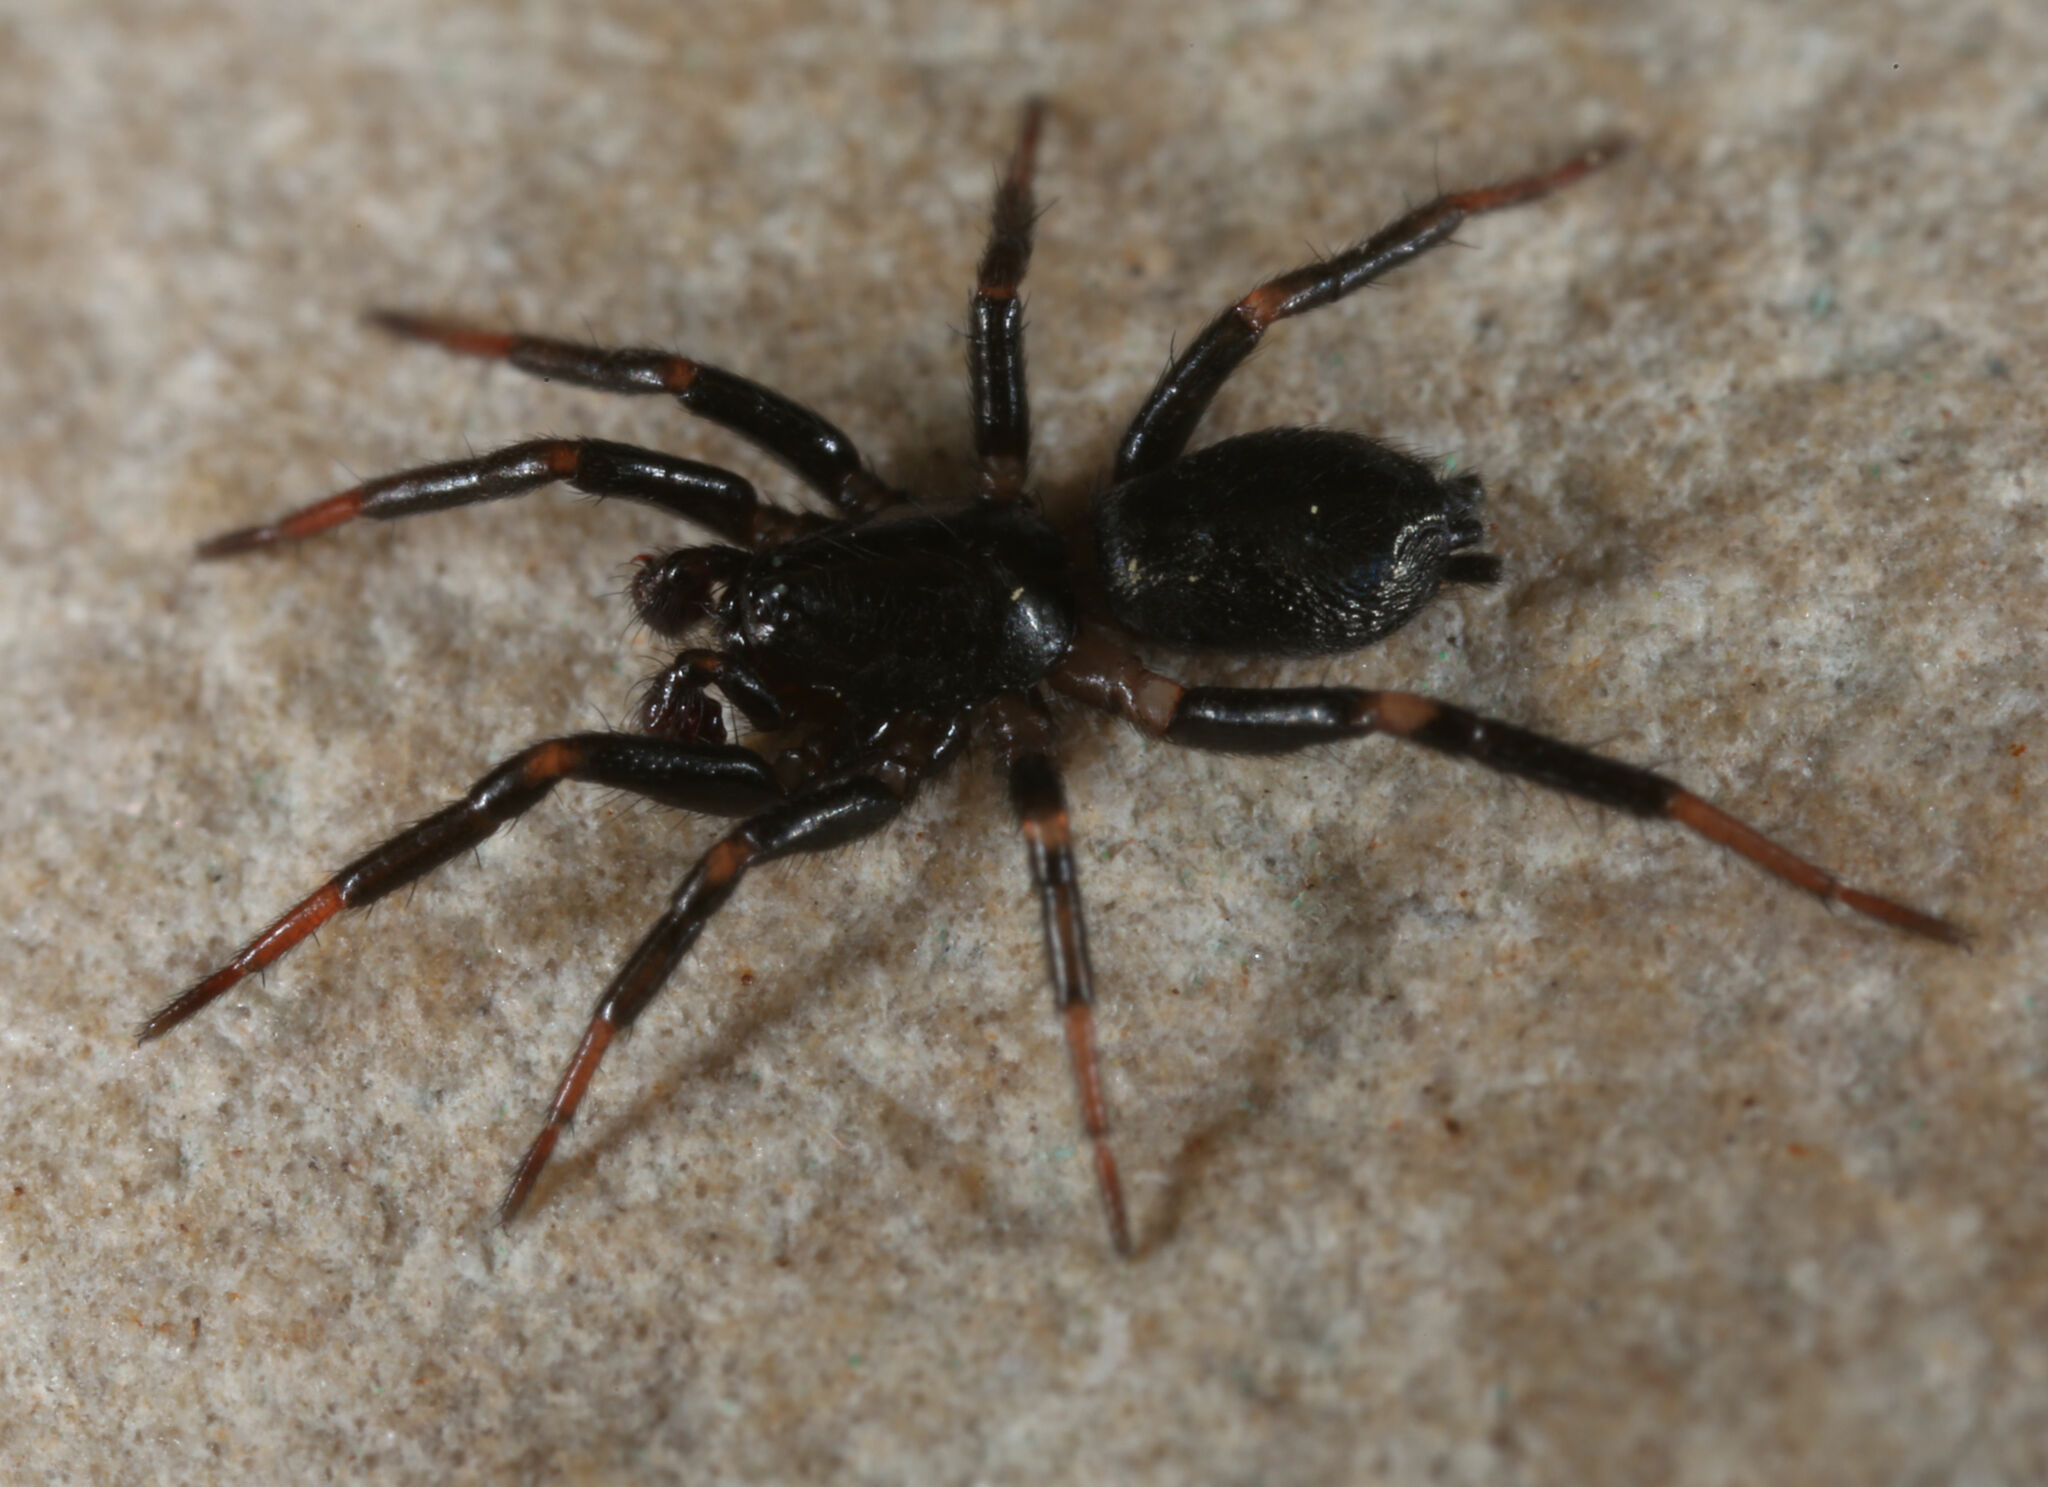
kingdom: Animalia
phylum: Arthropoda
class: Arachnida
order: Araneae
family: Gnaphosidae
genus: Eilica
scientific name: Eilica bicolor
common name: Ground spiders
